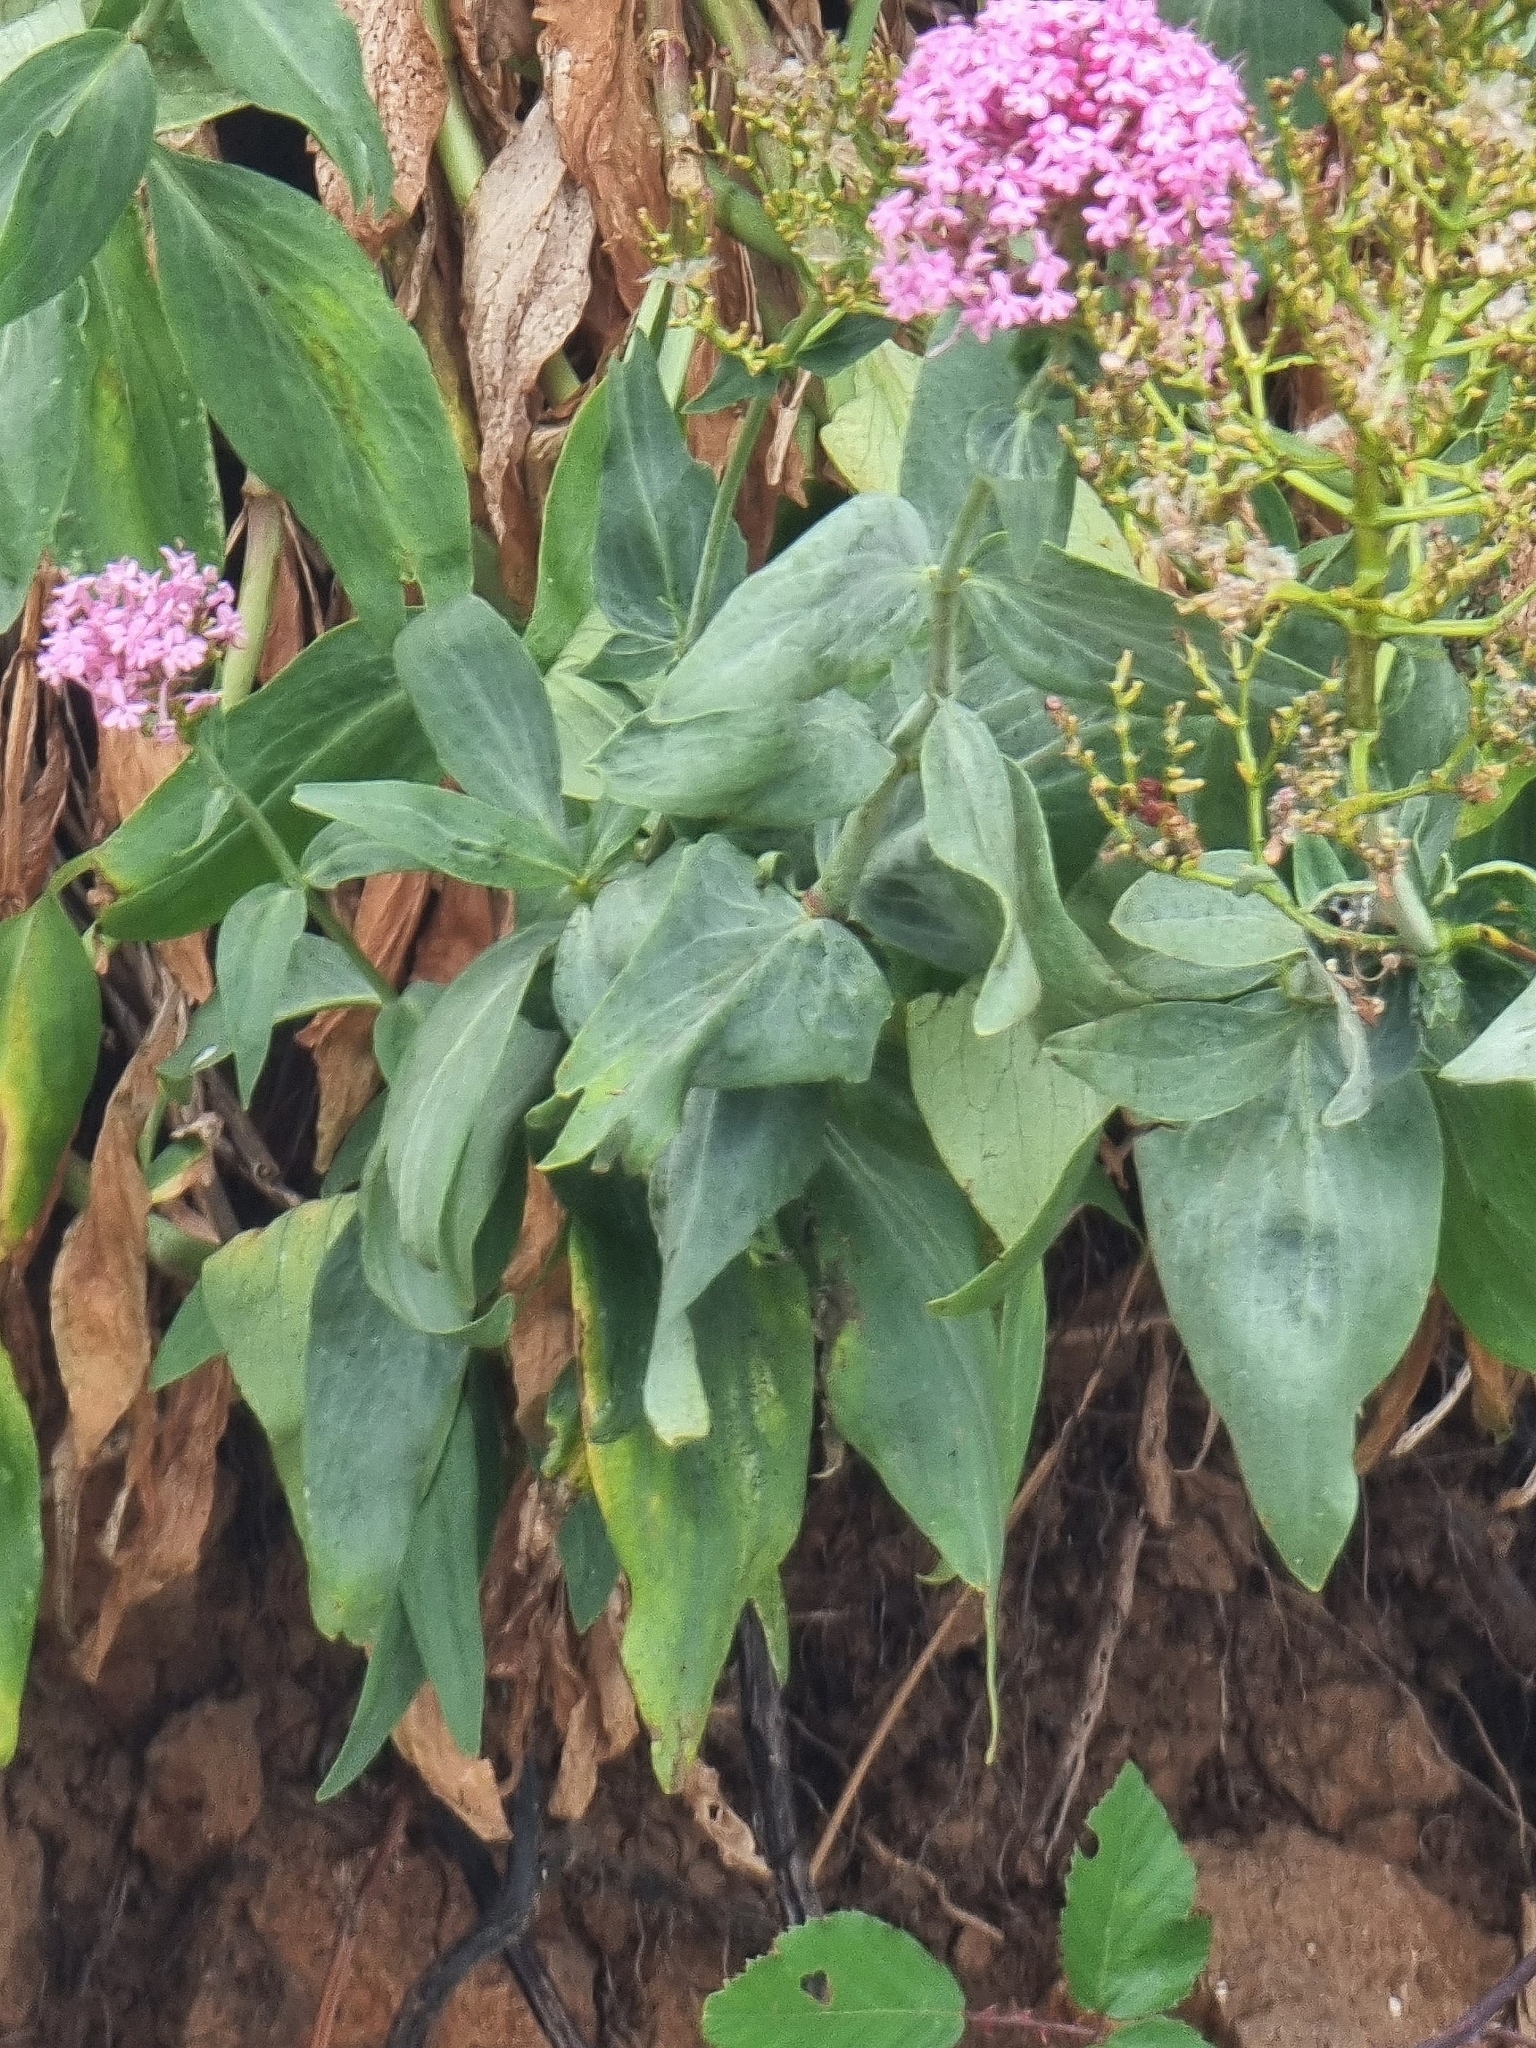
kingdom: Plantae
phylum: Tracheophyta
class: Magnoliopsida
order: Dipsacales
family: Caprifoliaceae
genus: Centranthus
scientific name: Centranthus ruber
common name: Red valerian
